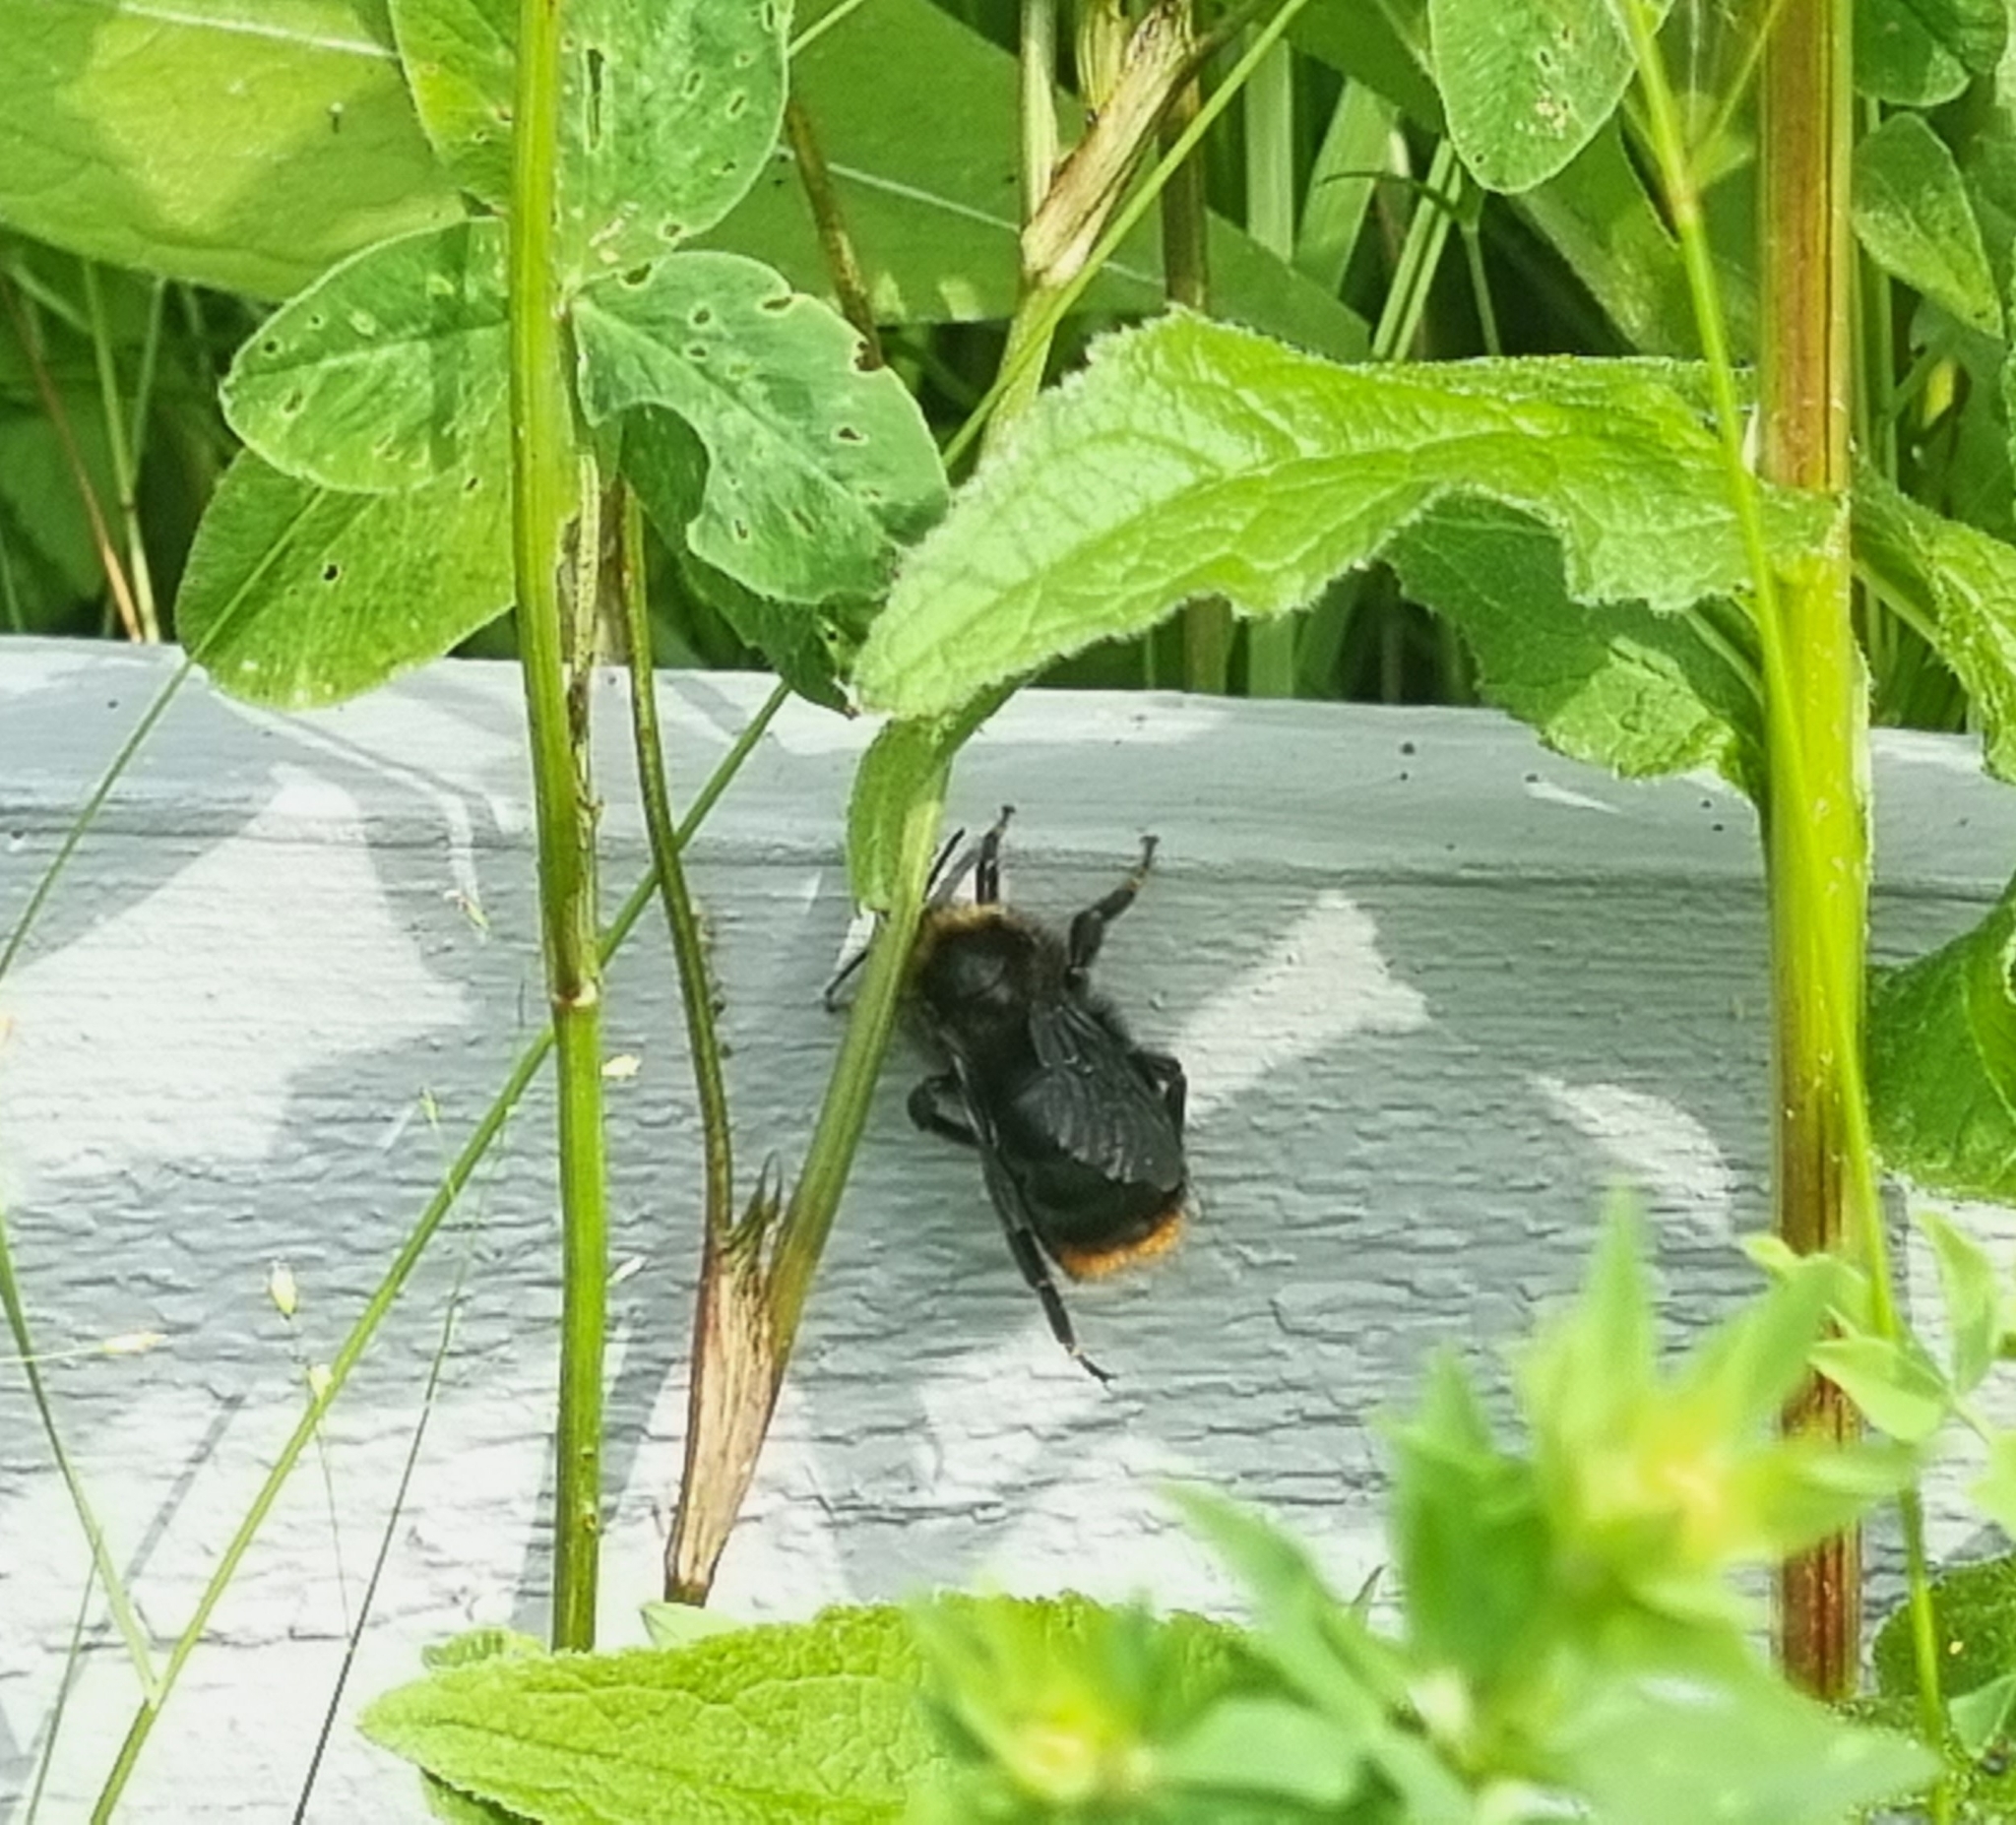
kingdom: Animalia
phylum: Arthropoda
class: Insecta
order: Hymenoptera
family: Apidae
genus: Bombus
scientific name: Bombus rupestris
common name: Hill cuckoo-bee
